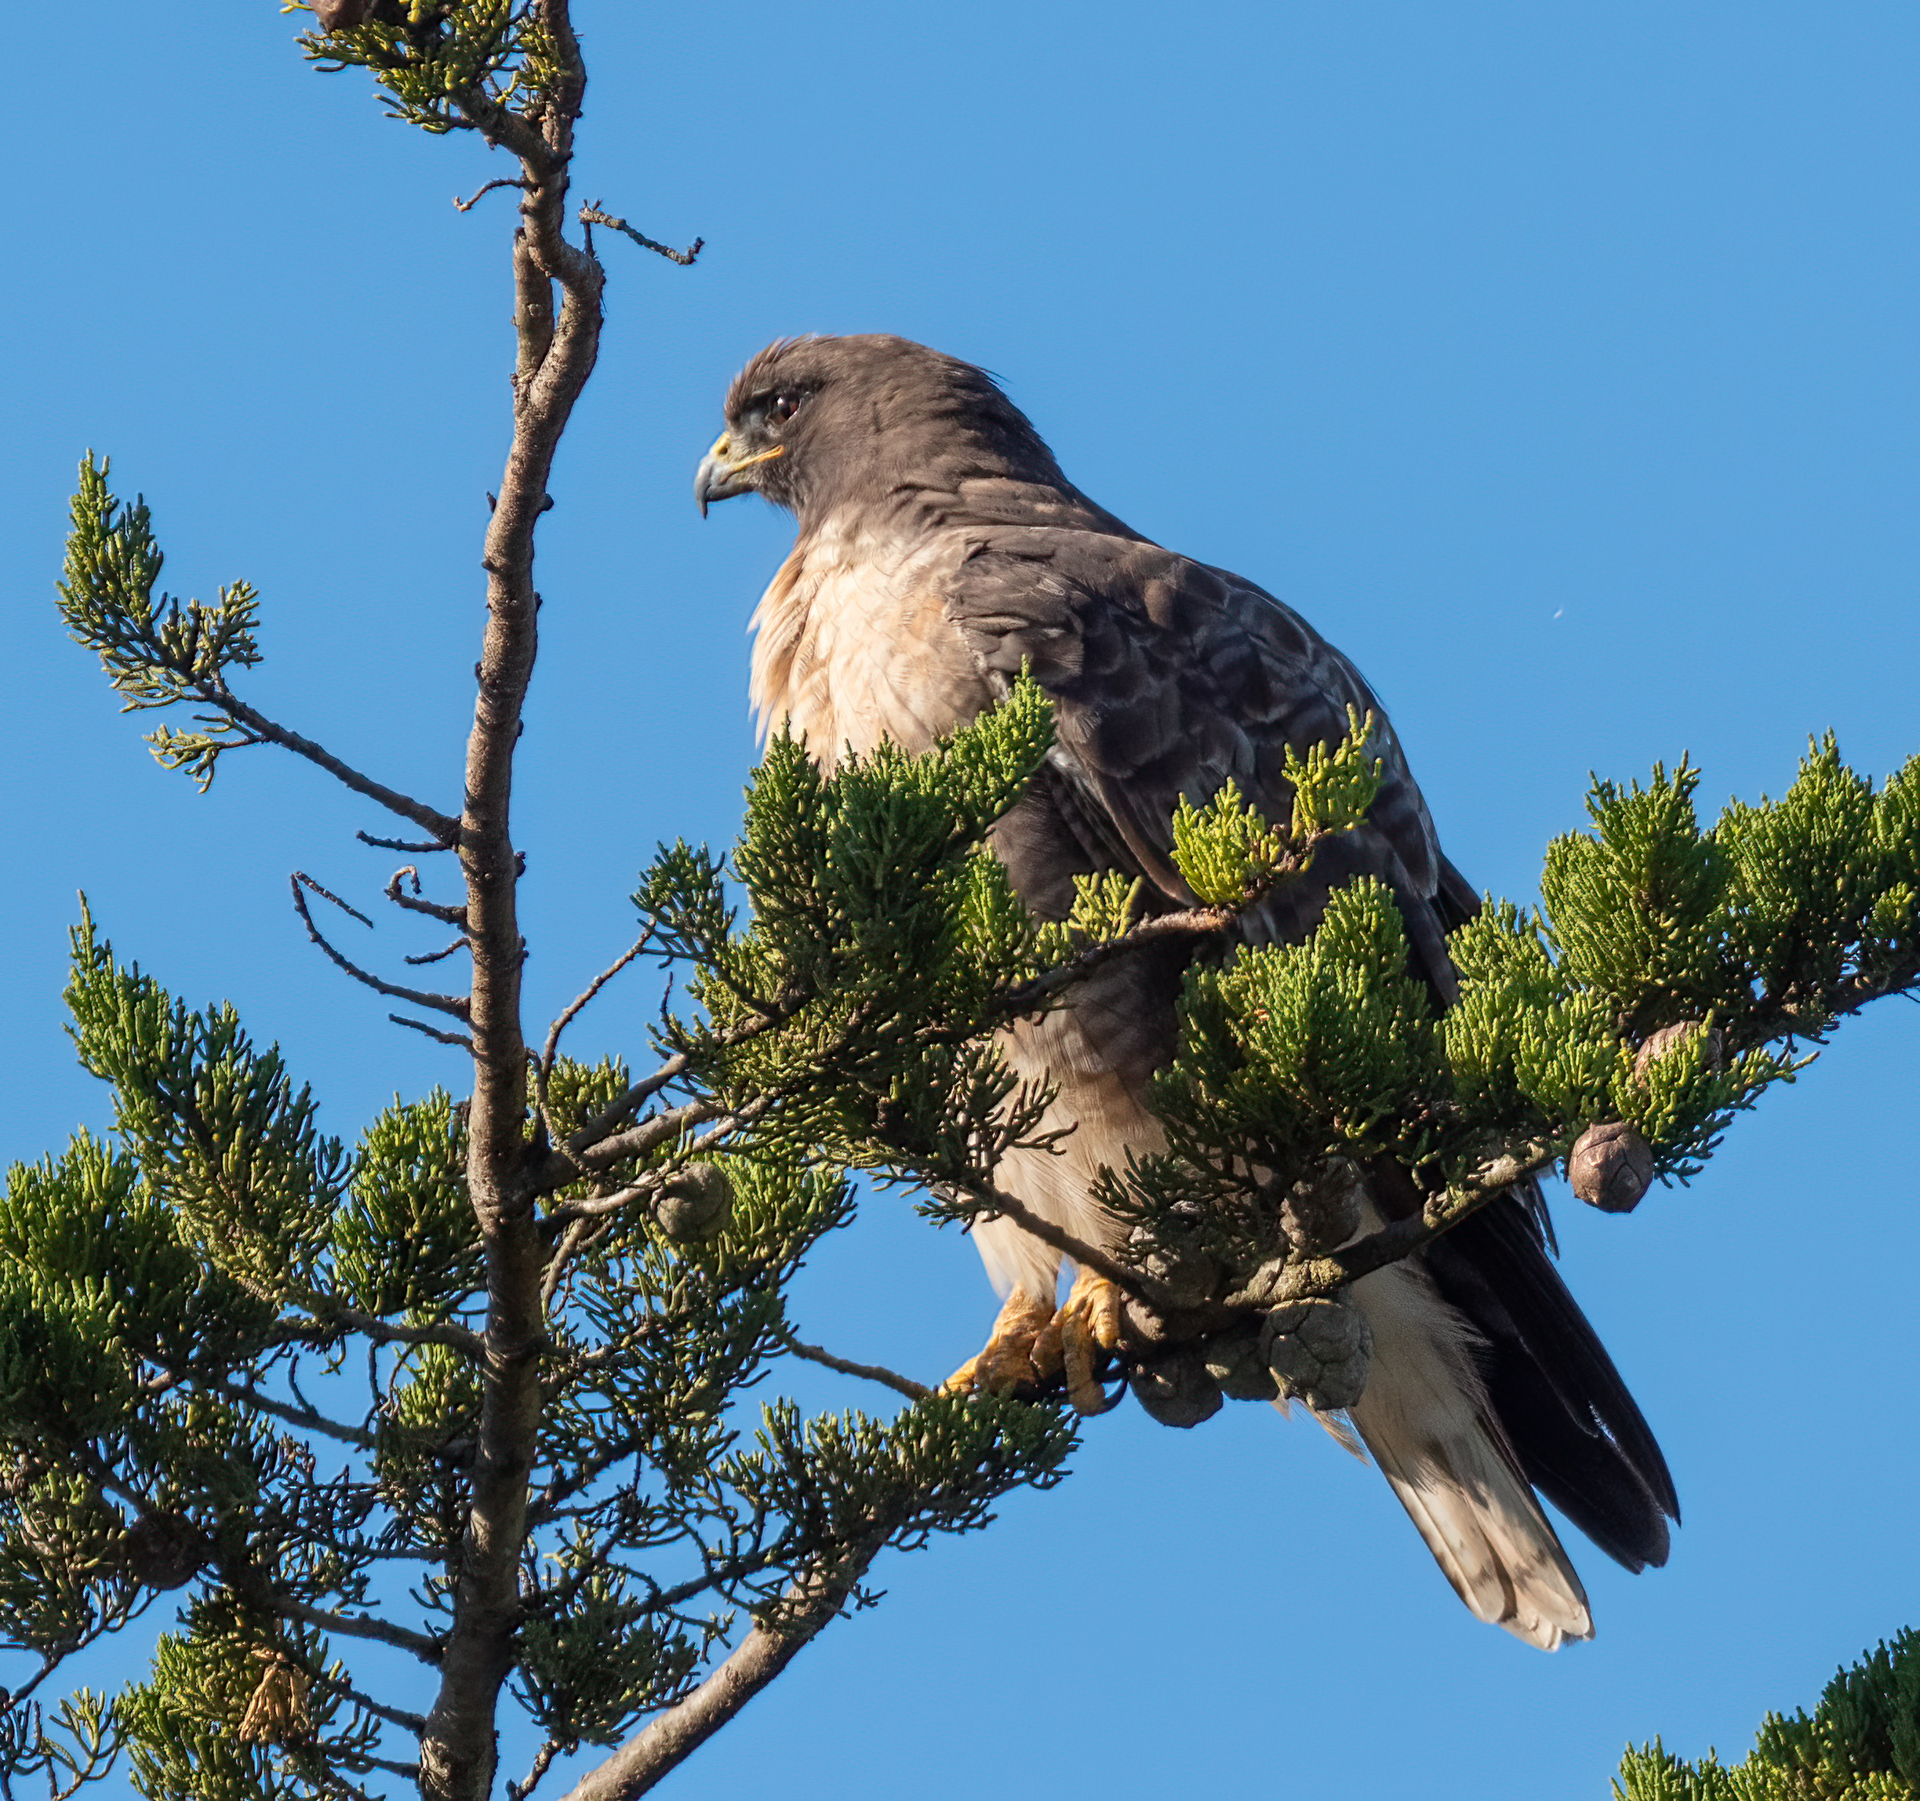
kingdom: Animalia
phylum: Chordata
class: Aves
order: Accipitriformes
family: Accipitridae
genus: Buteo
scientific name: Buteo jamaicensis
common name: Red-tailed hawk
